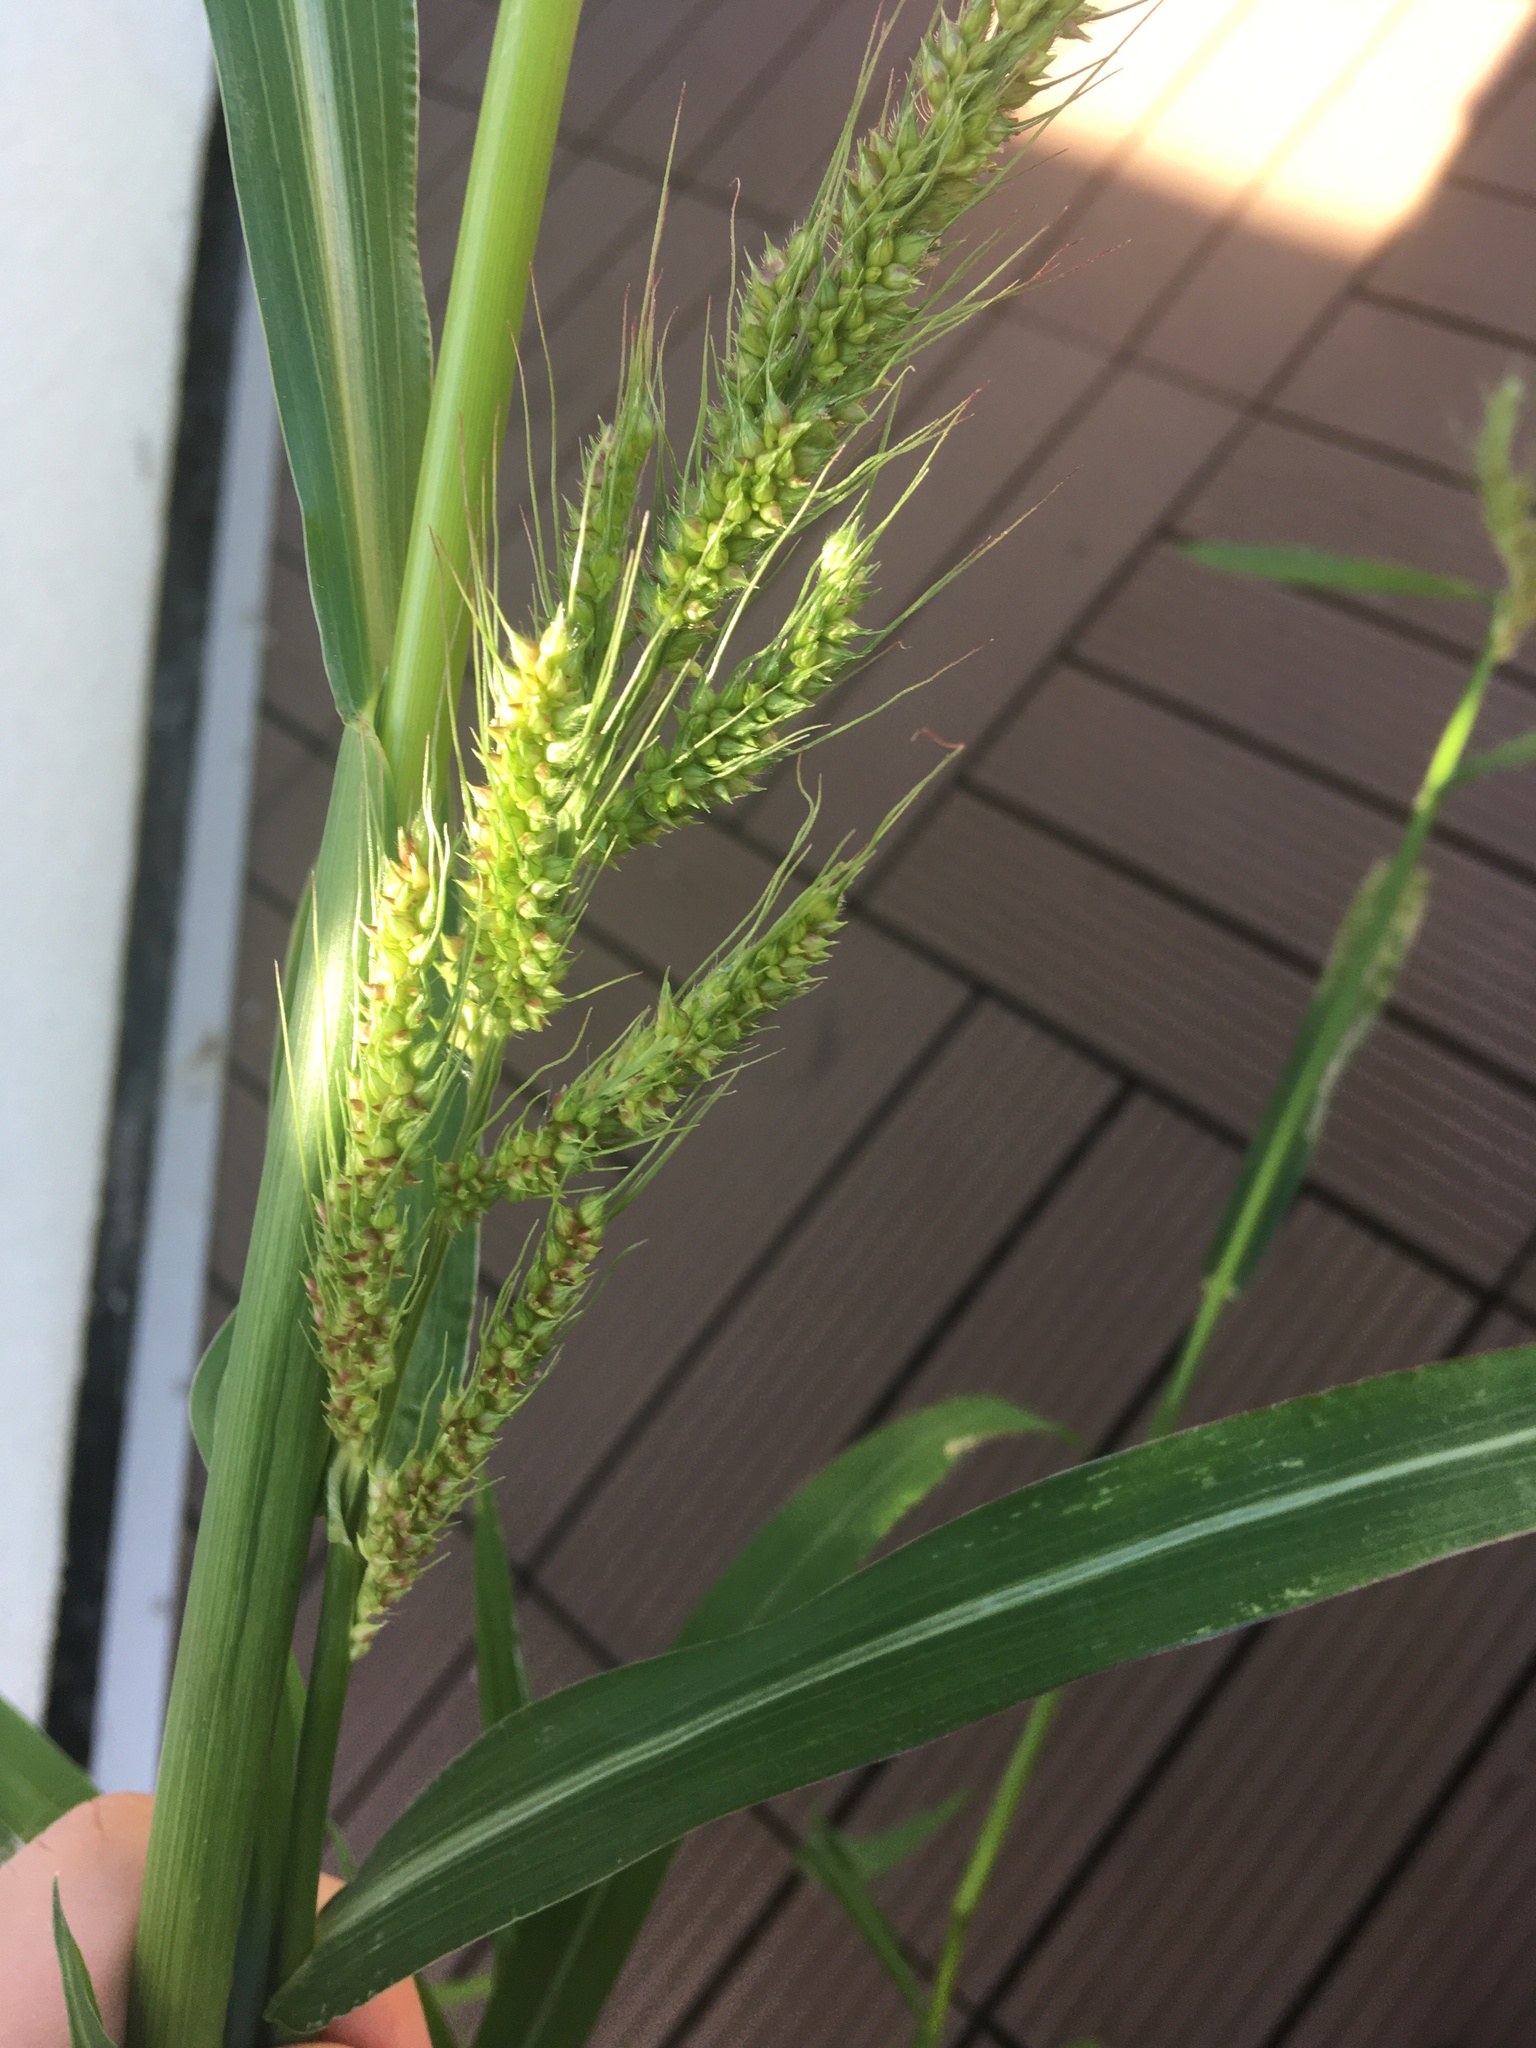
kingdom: Plantae
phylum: Tracheophyta
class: Liliopsida
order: Poales
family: Poaceae
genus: Echinochloa
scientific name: Echinochloa crus-galli
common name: Cockspur
